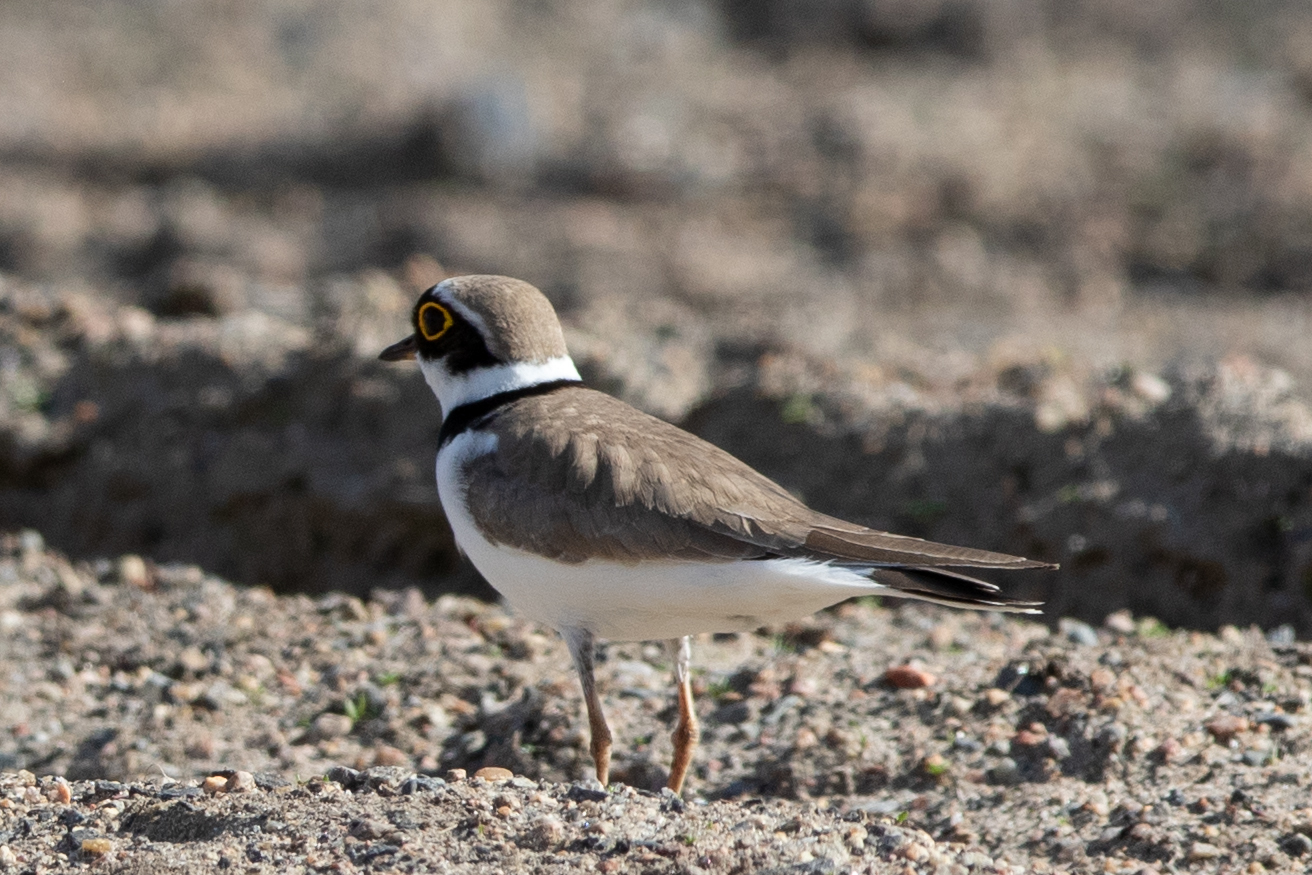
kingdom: Animalia
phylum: Chordata
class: Aves
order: Charadriiformes
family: Charadriidae
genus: Charadrius
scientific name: Charadrius dubius
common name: Little ringed plover
